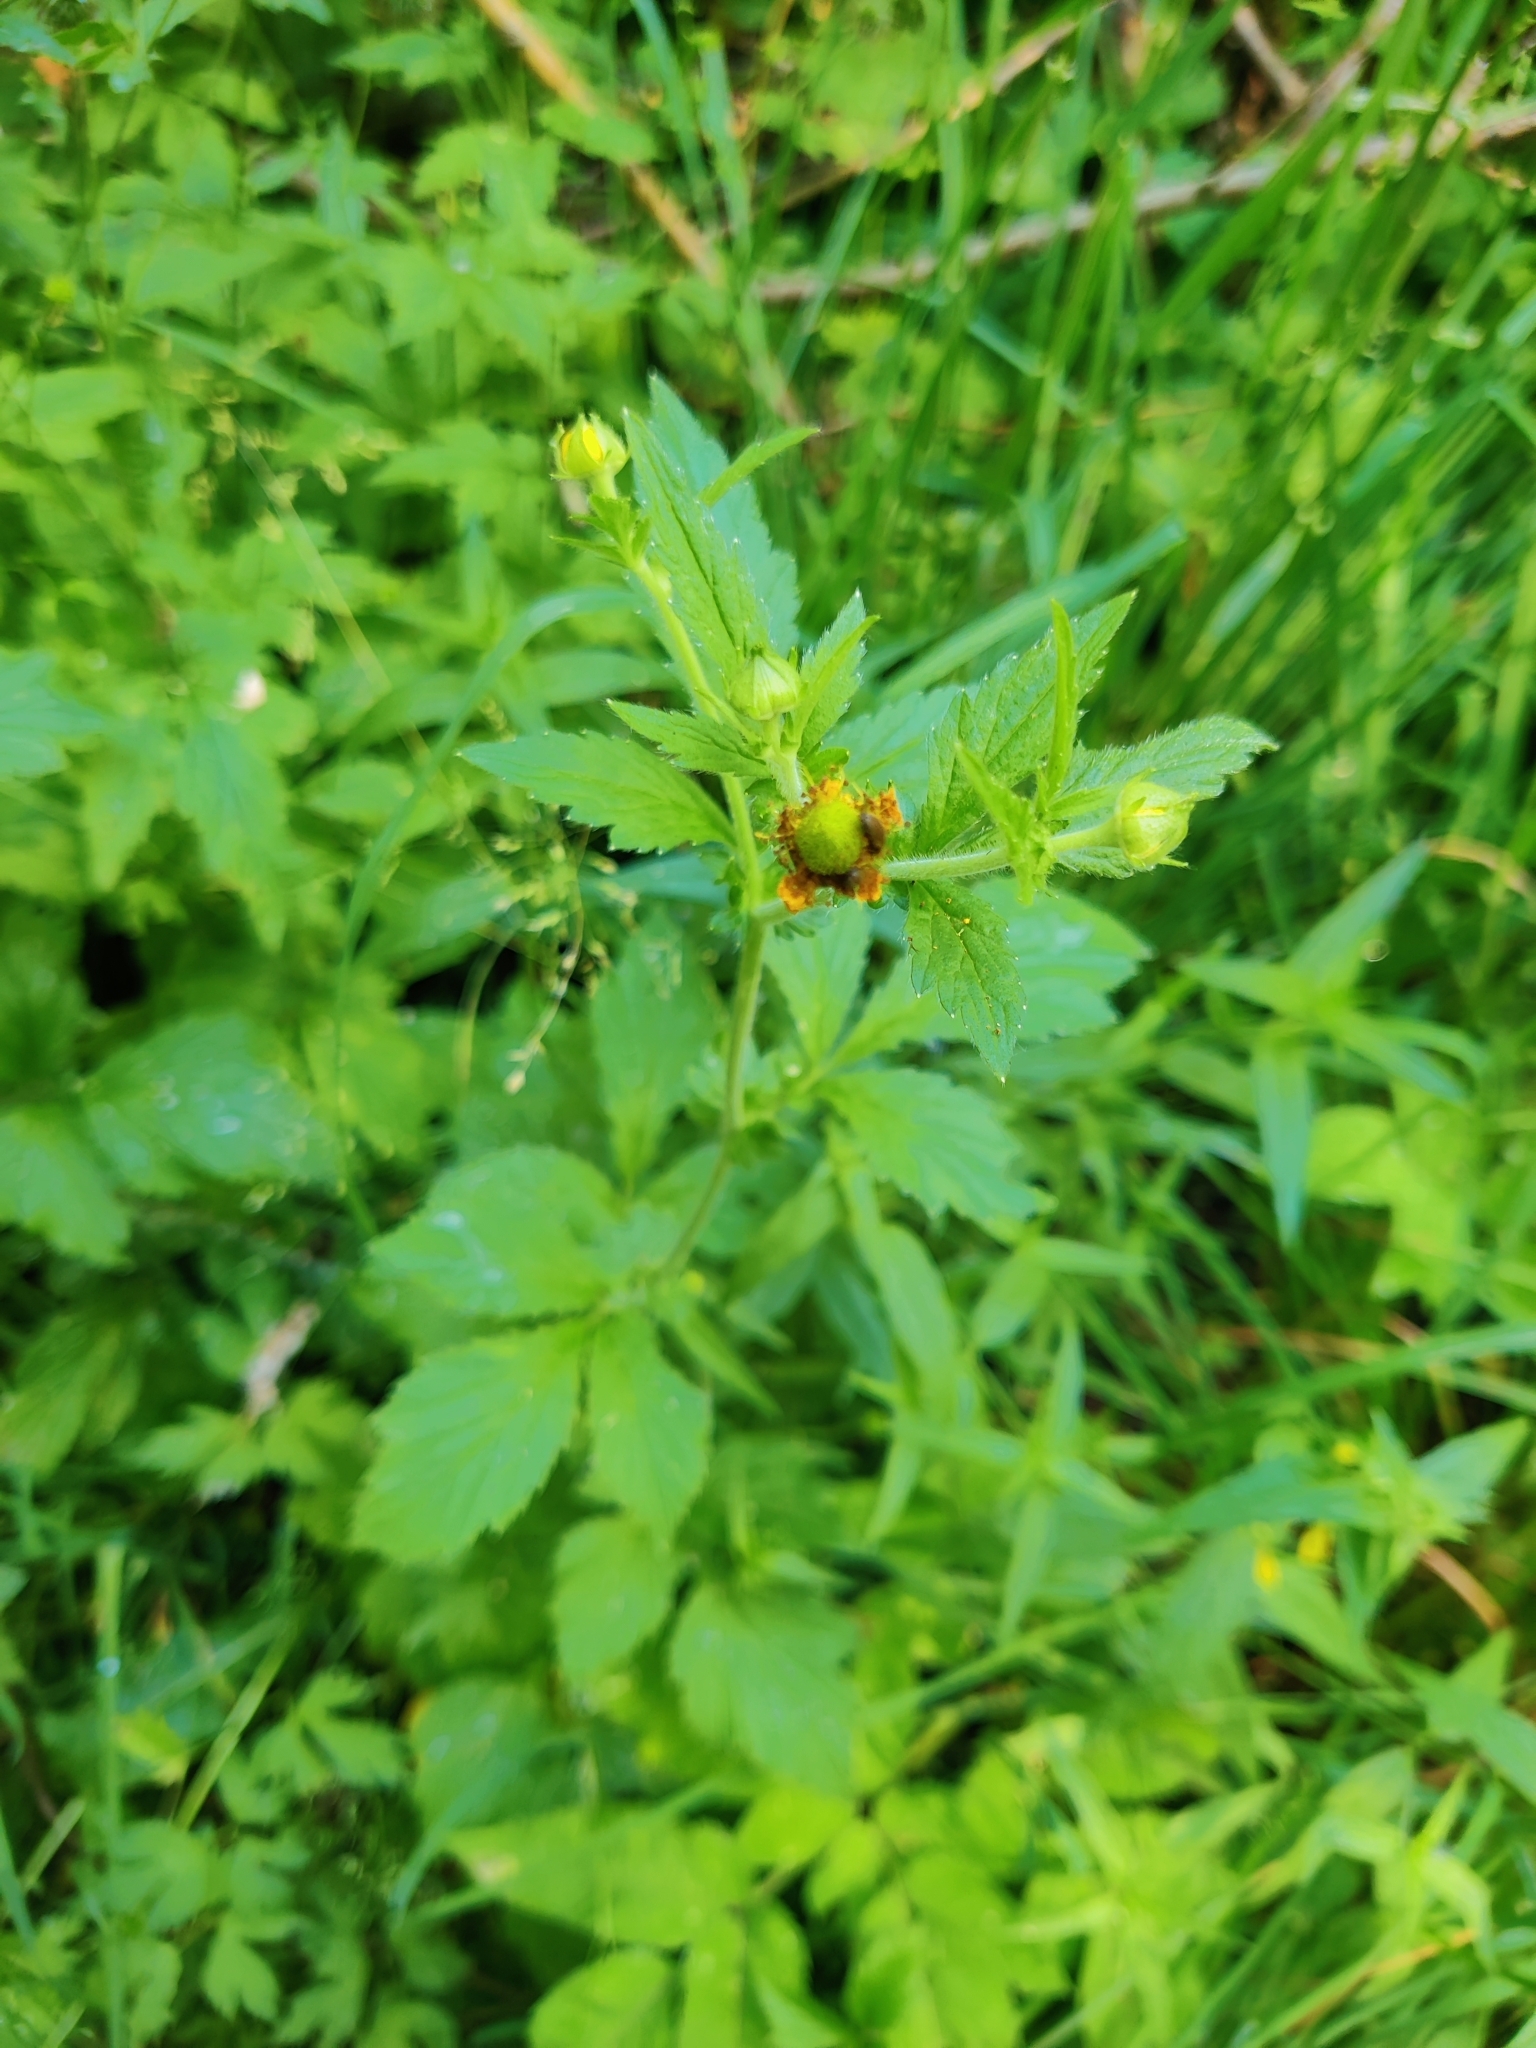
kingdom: Plantae
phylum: Tracheophyta
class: Magnoliopsida
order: Rosales
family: Rosaceae
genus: Geum
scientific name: Geum aleppicum
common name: Yellow avens
